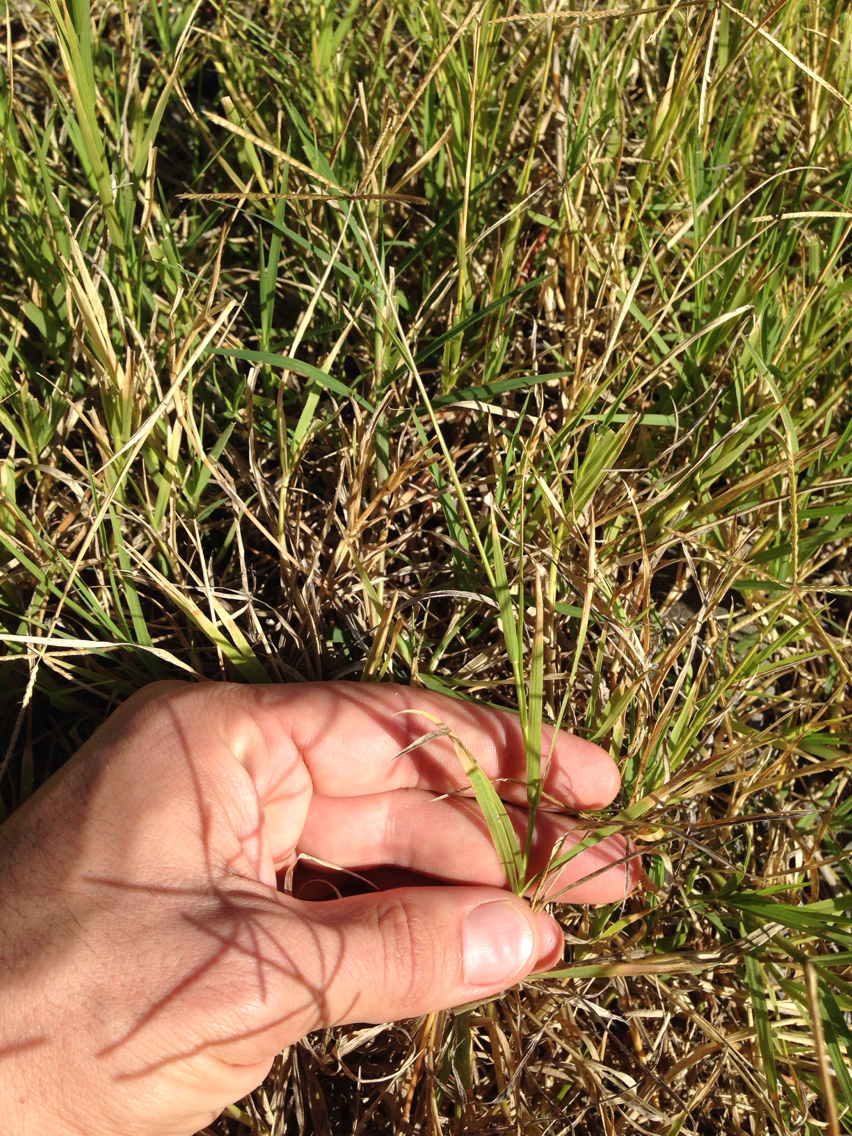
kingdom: Plantae
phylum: Tracheophyta
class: Liliopsida
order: Poales
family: Poaceae
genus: Cynodon
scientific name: Cynodon dactylon
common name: Bermuda grass
